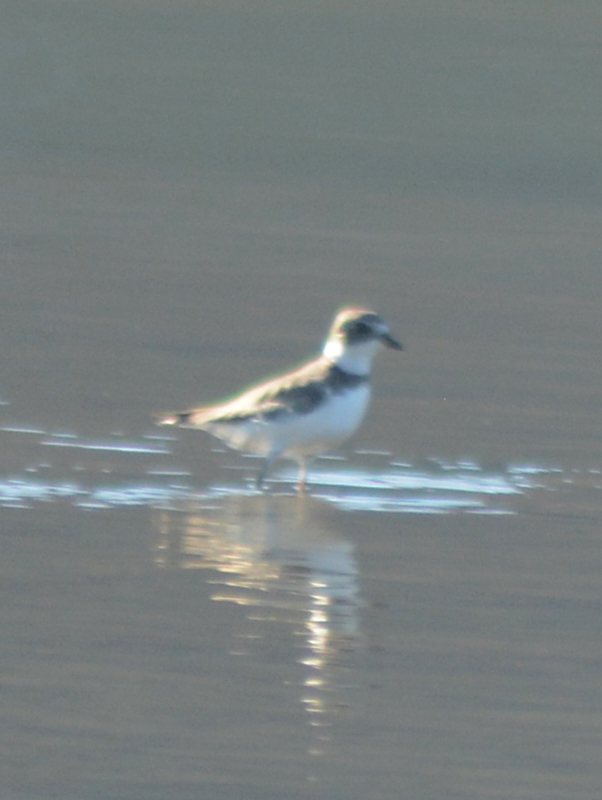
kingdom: Animalia
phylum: Chordata
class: Aves
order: Charadriiformes
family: Charadriidae
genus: Anarhynchus
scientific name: Anarhynchus
